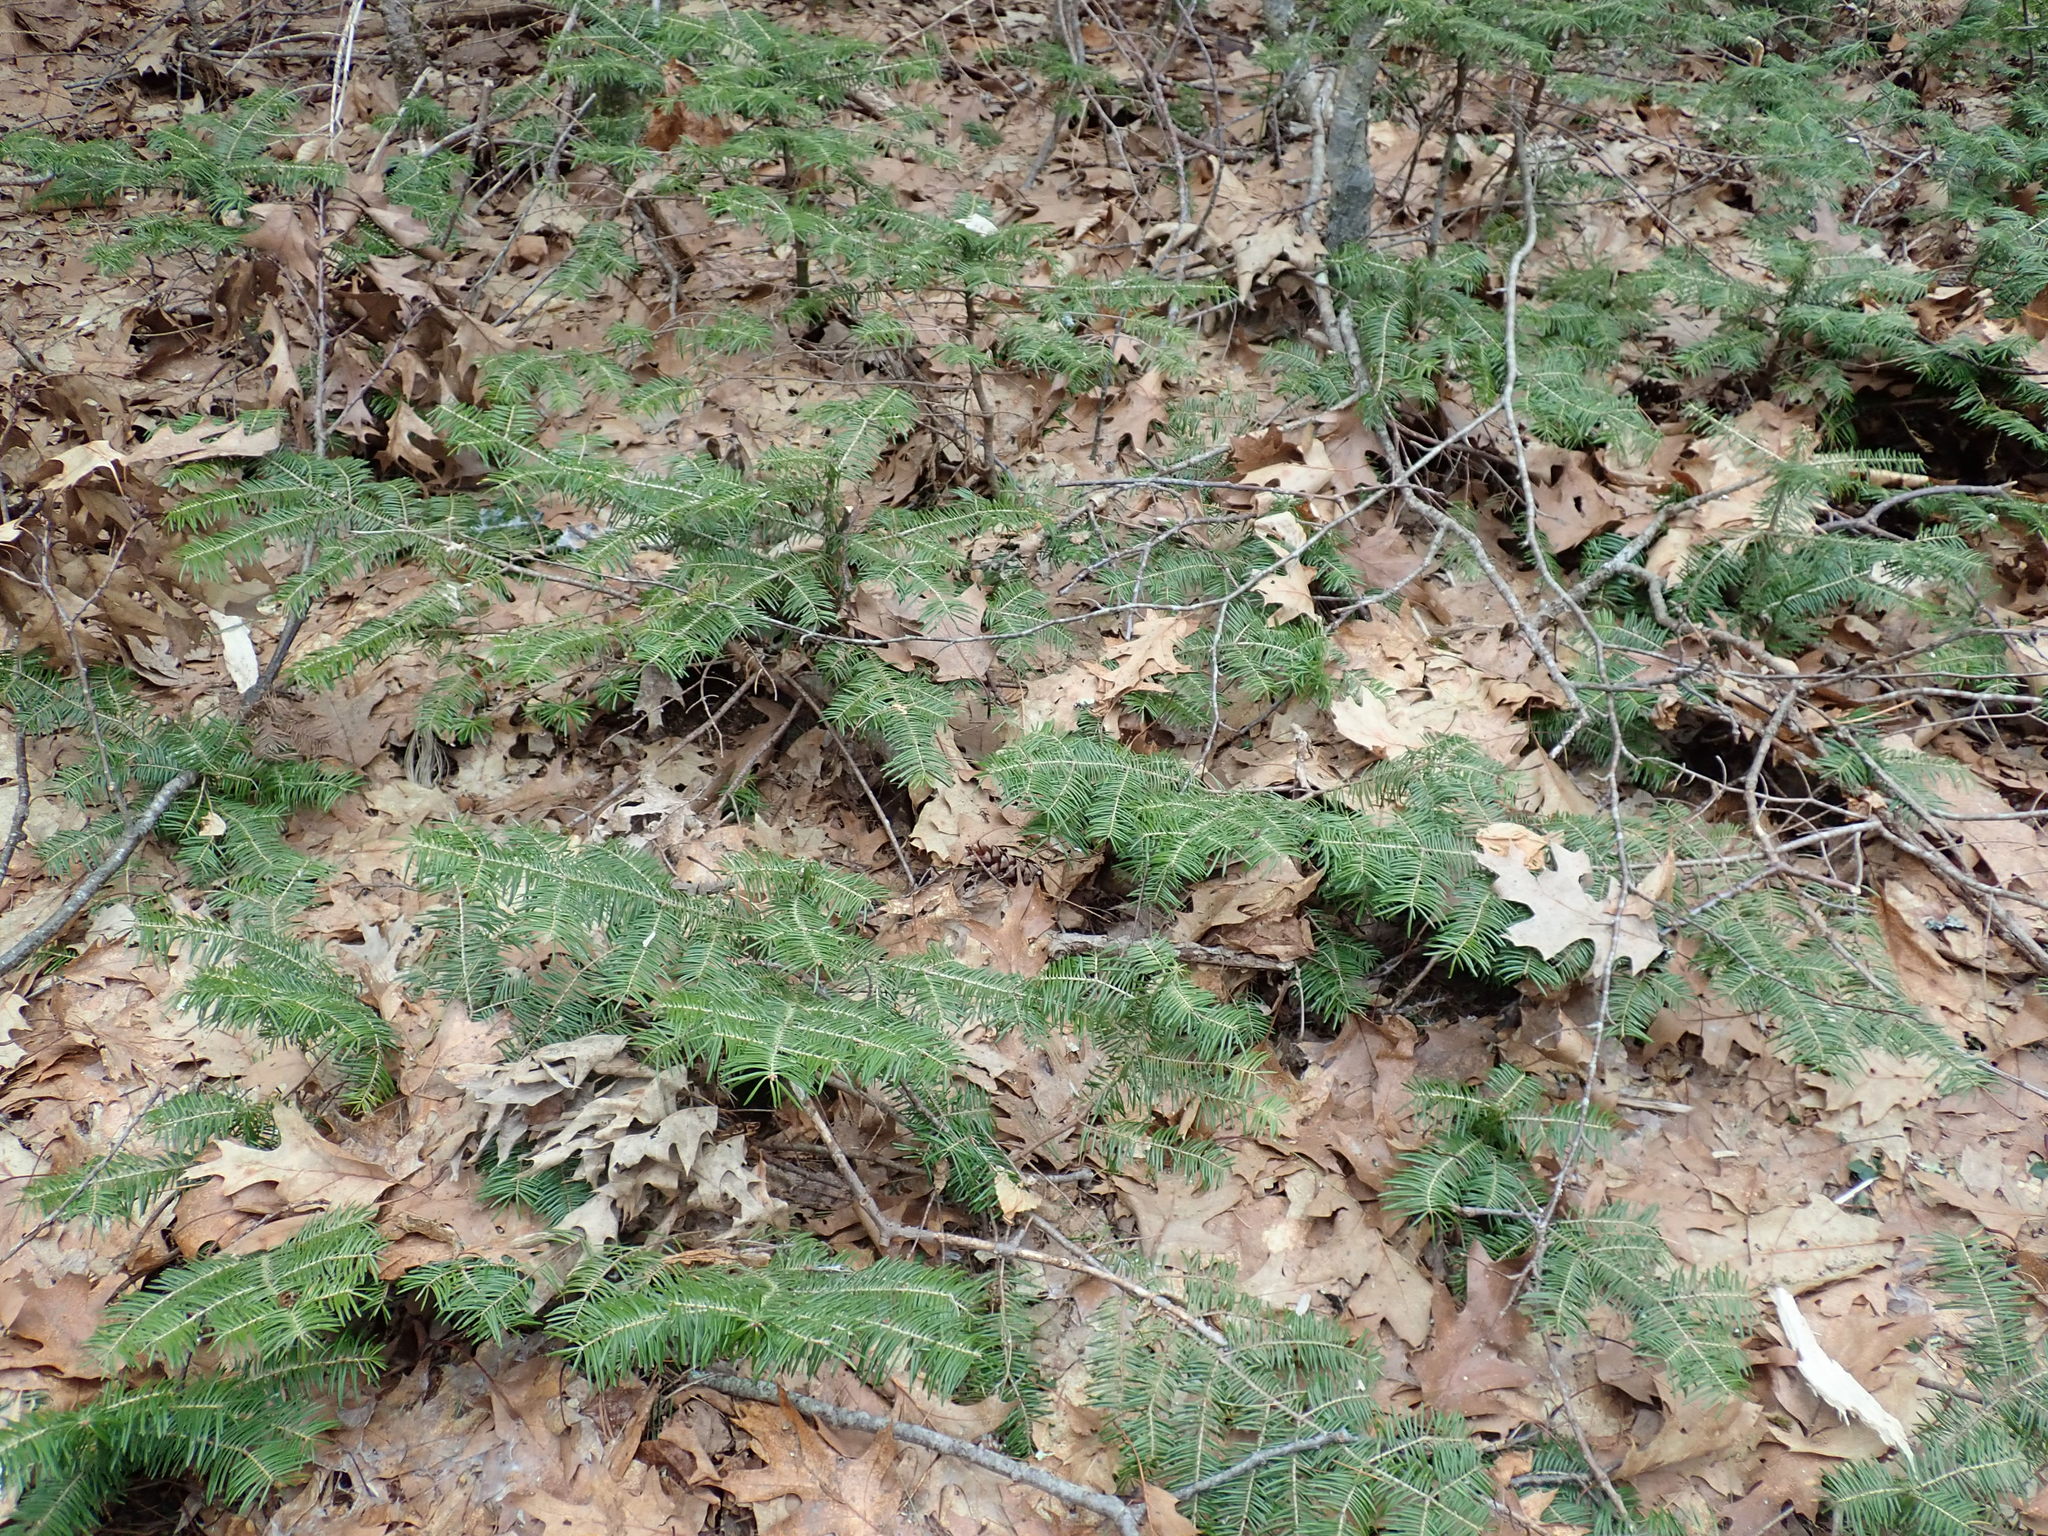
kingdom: Plantae
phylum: Tracheophyta
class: Pinopsida
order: Pinales
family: Pinaceae
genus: Abies
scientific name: Abies balsamea
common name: Balsam fir
